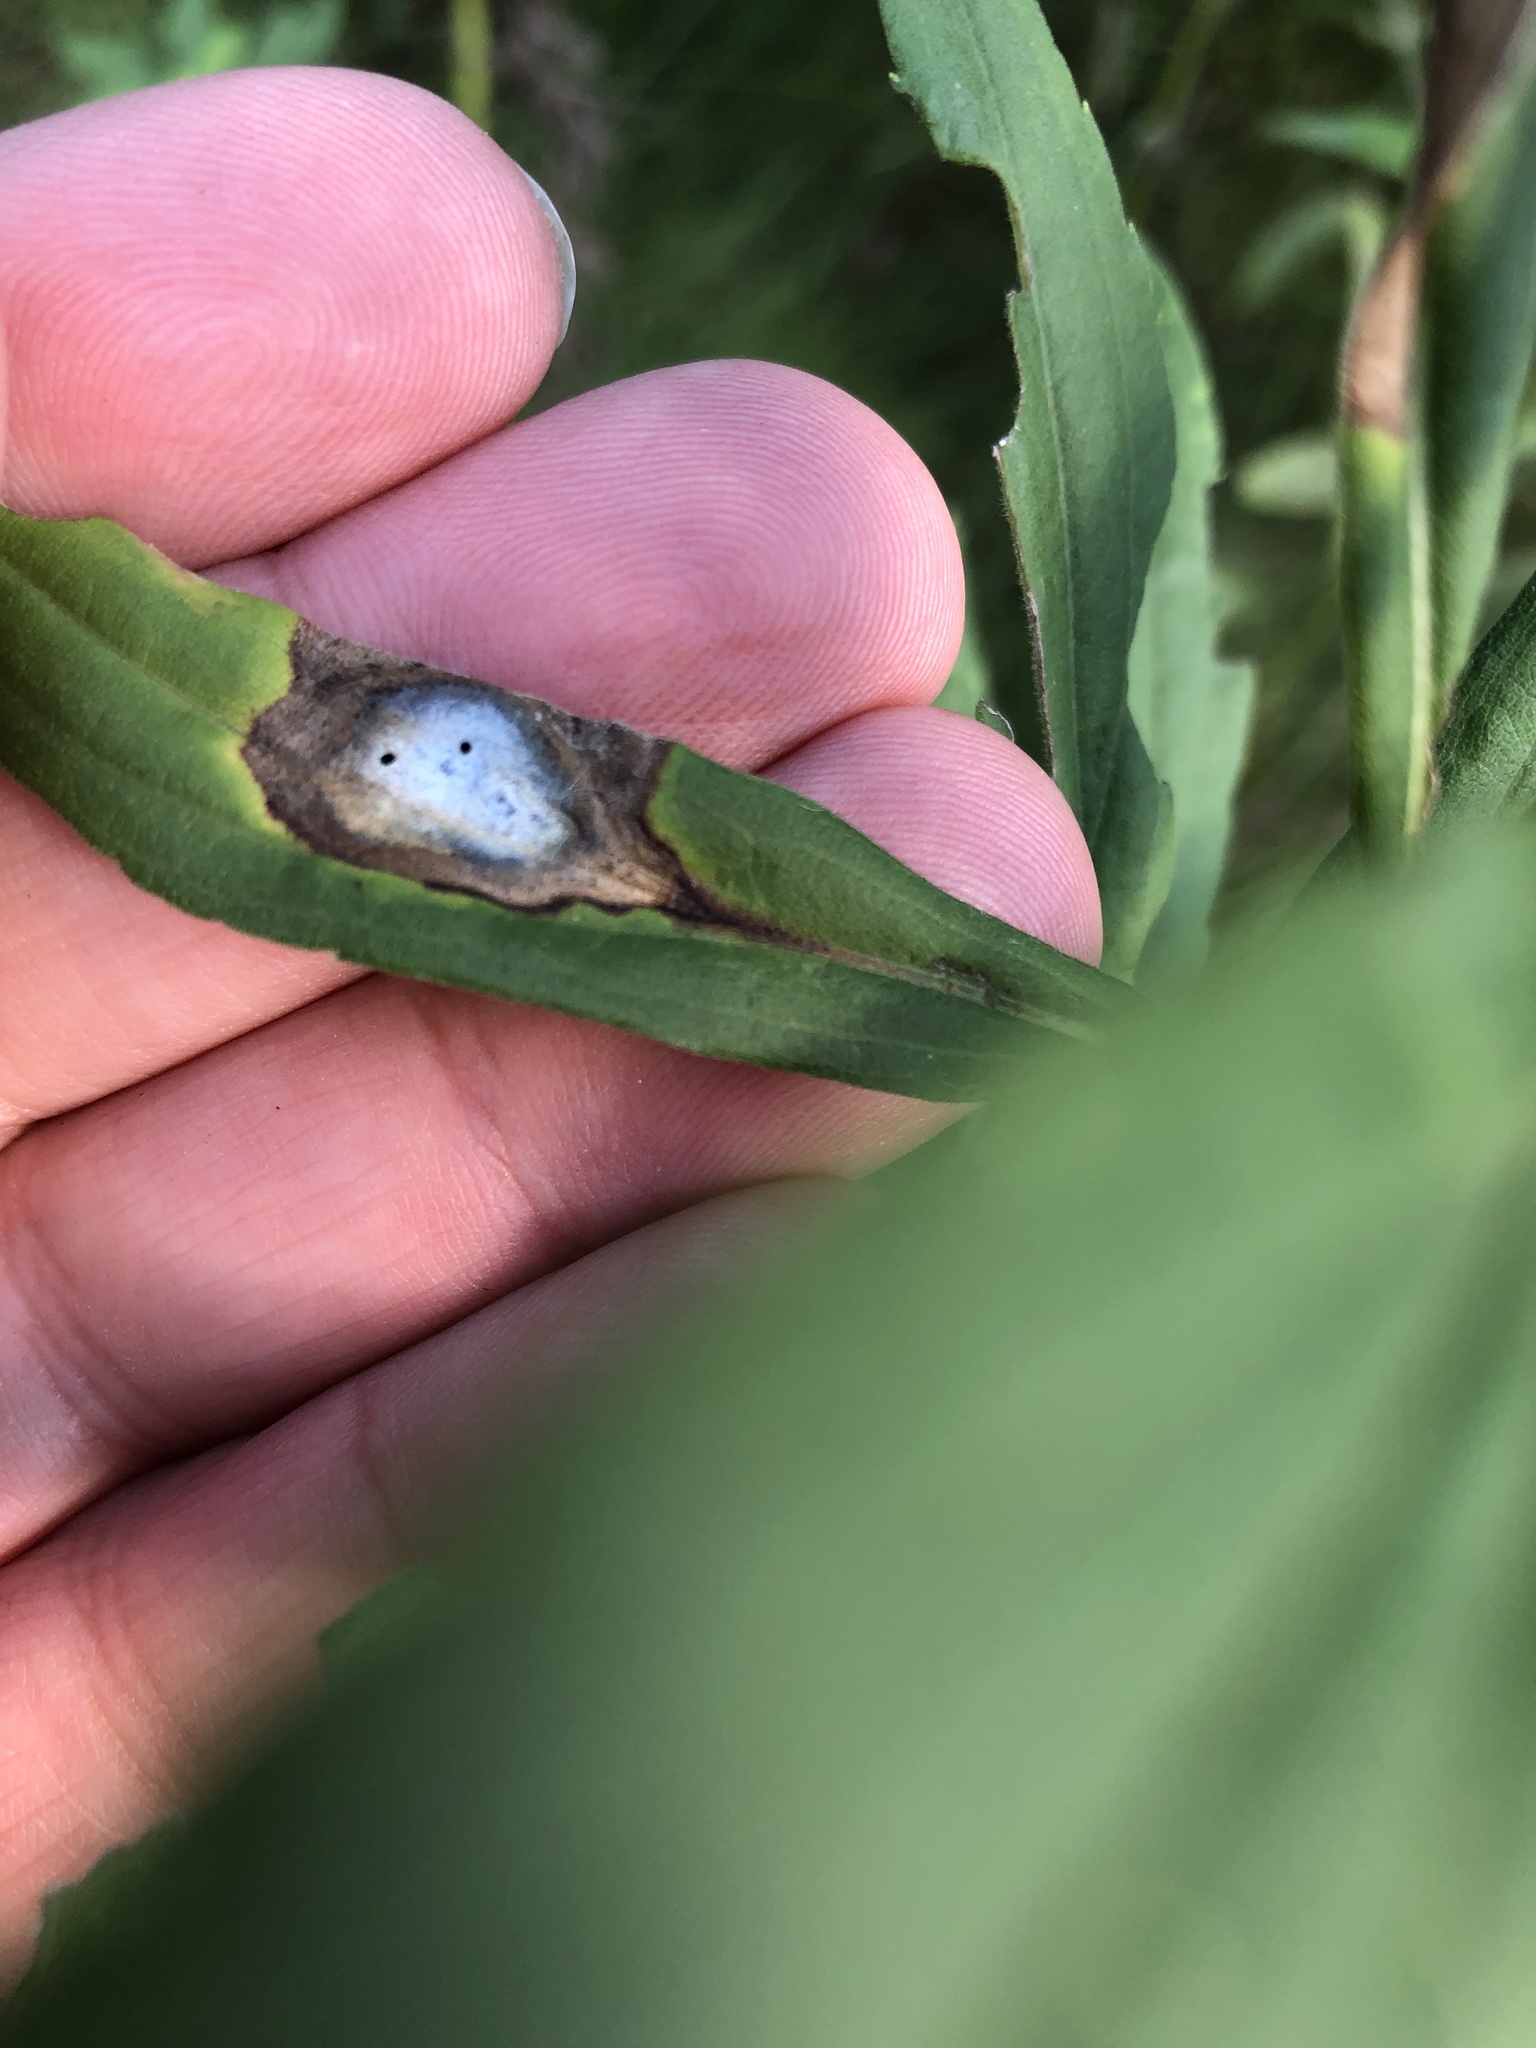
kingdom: Animalia
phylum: Arthropoda
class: Insecta
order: Diptera
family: Cecidomyiidae
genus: Asteromyia
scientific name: Asteromyia carbonifera
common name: Carbonifera goldenrod gall midge
